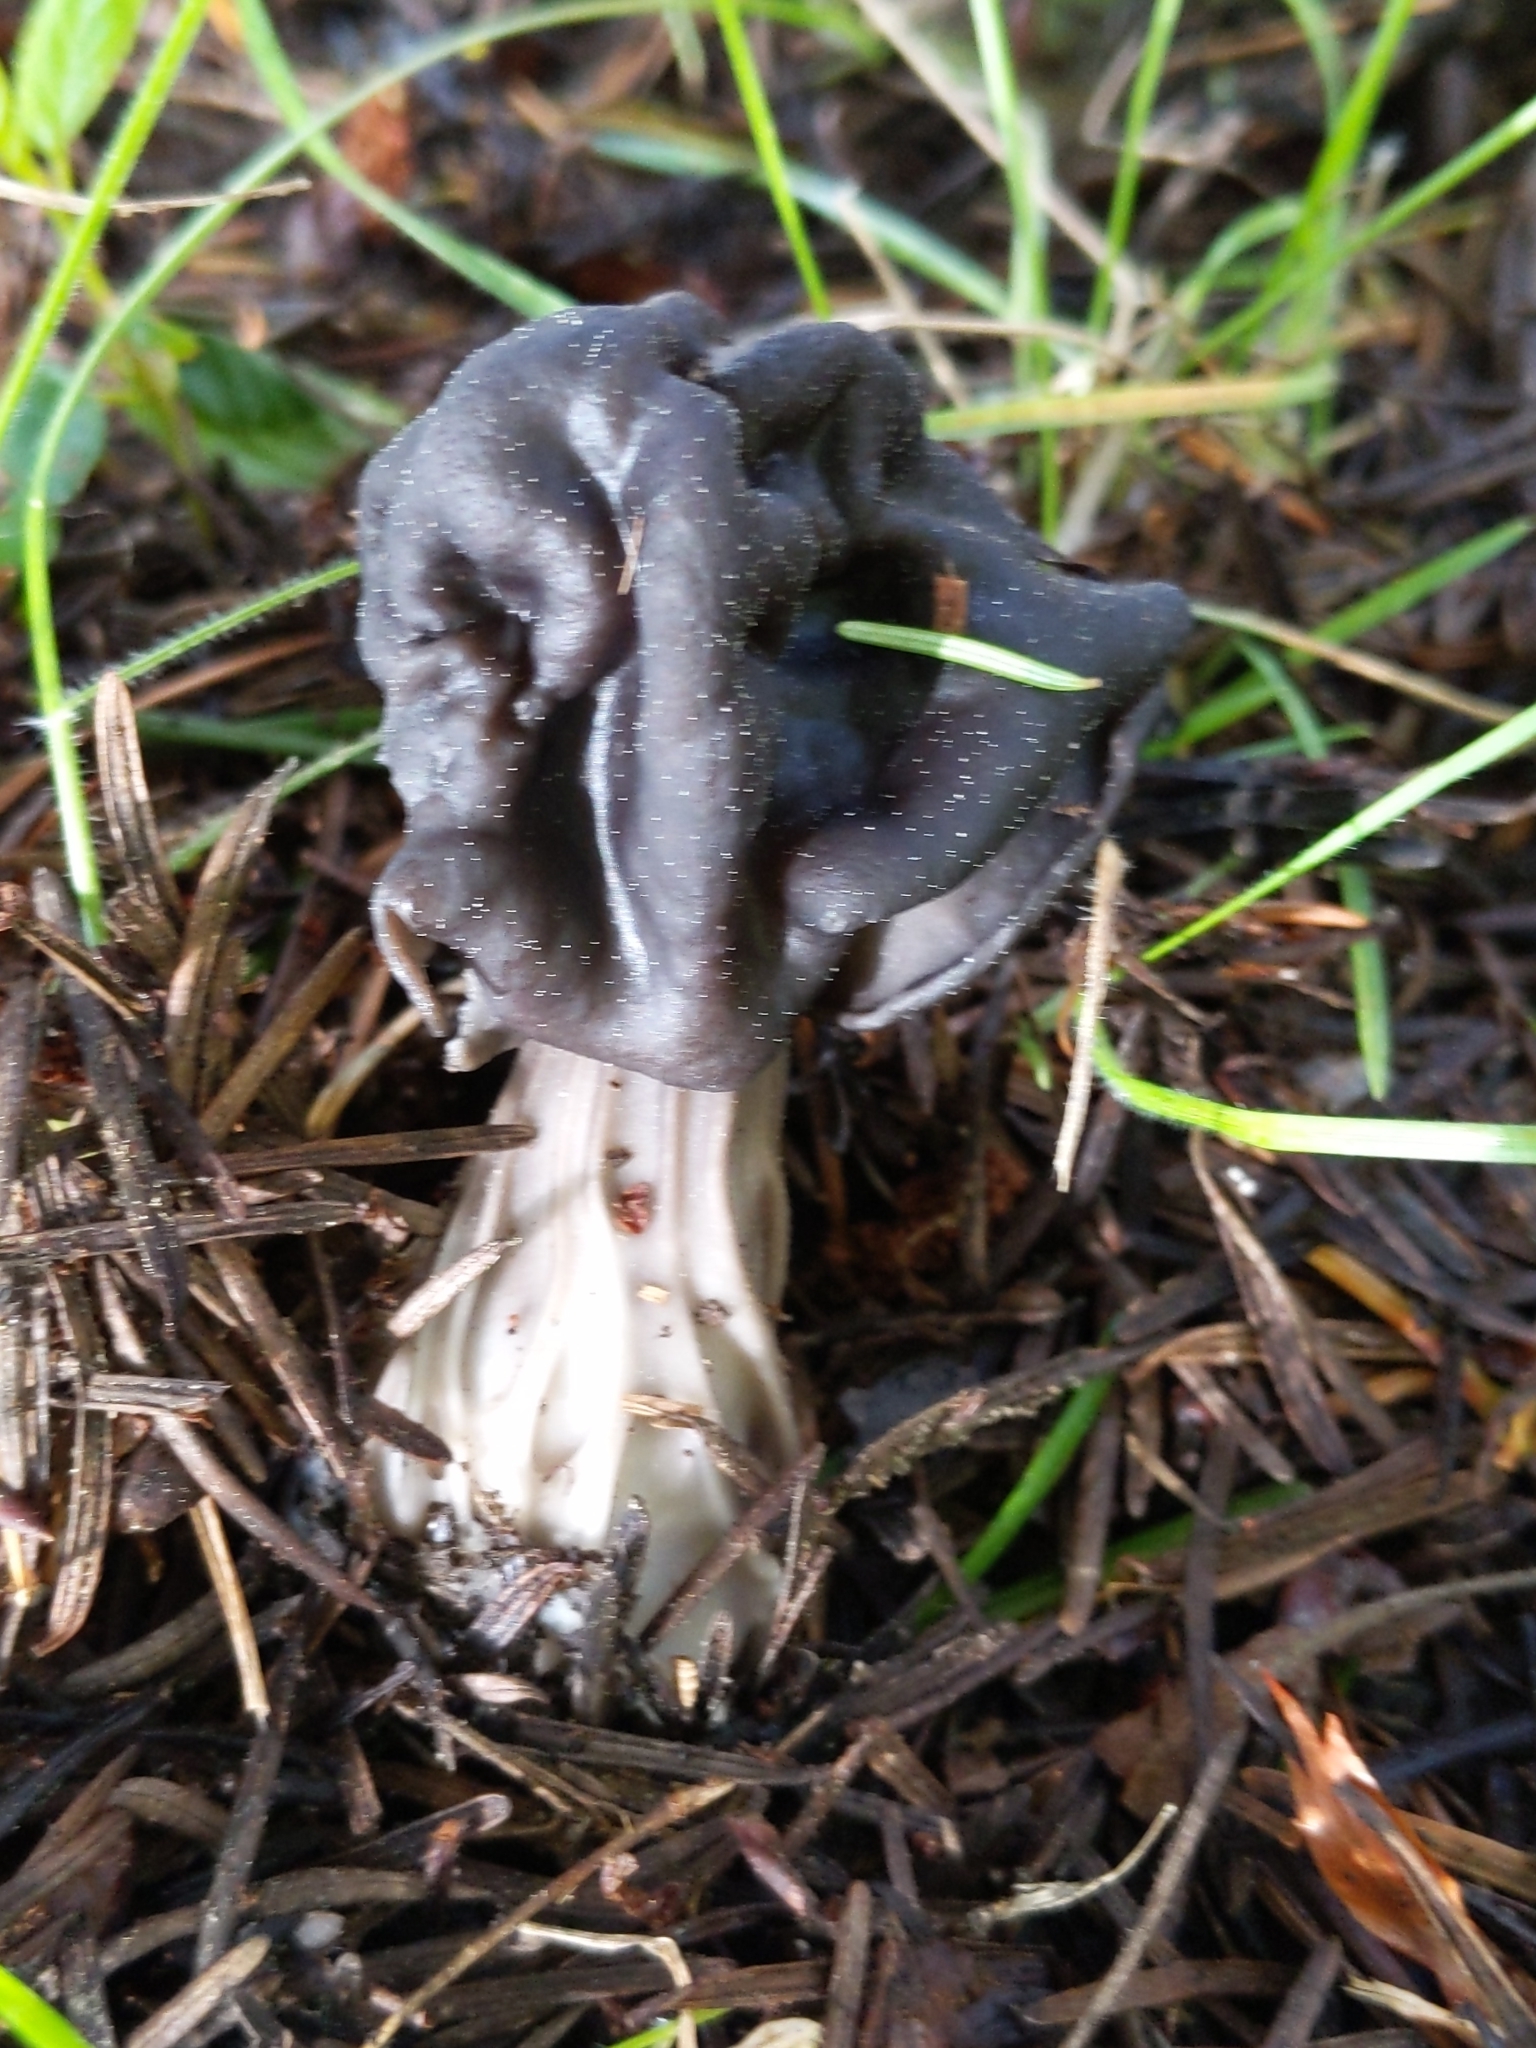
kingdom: Fungi
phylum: Ascomycota
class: Pezizomycetes
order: Pezizales
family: Helvellaceae
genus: Helvella
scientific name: Helvella vespertina
